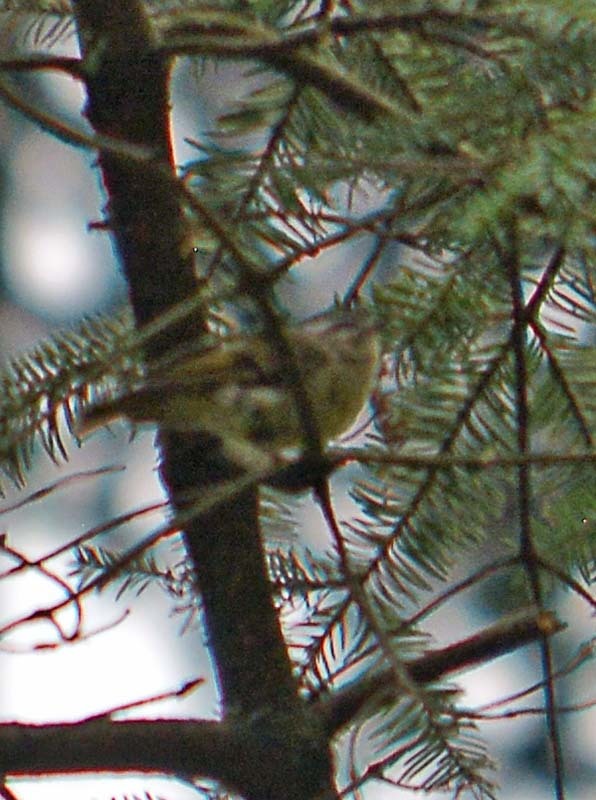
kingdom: Animalia
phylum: Chordata
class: Aves
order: Passeriformes
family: Regulidae
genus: Regulus
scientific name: Regulus satrapa
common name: Golden-crowned kinglet
